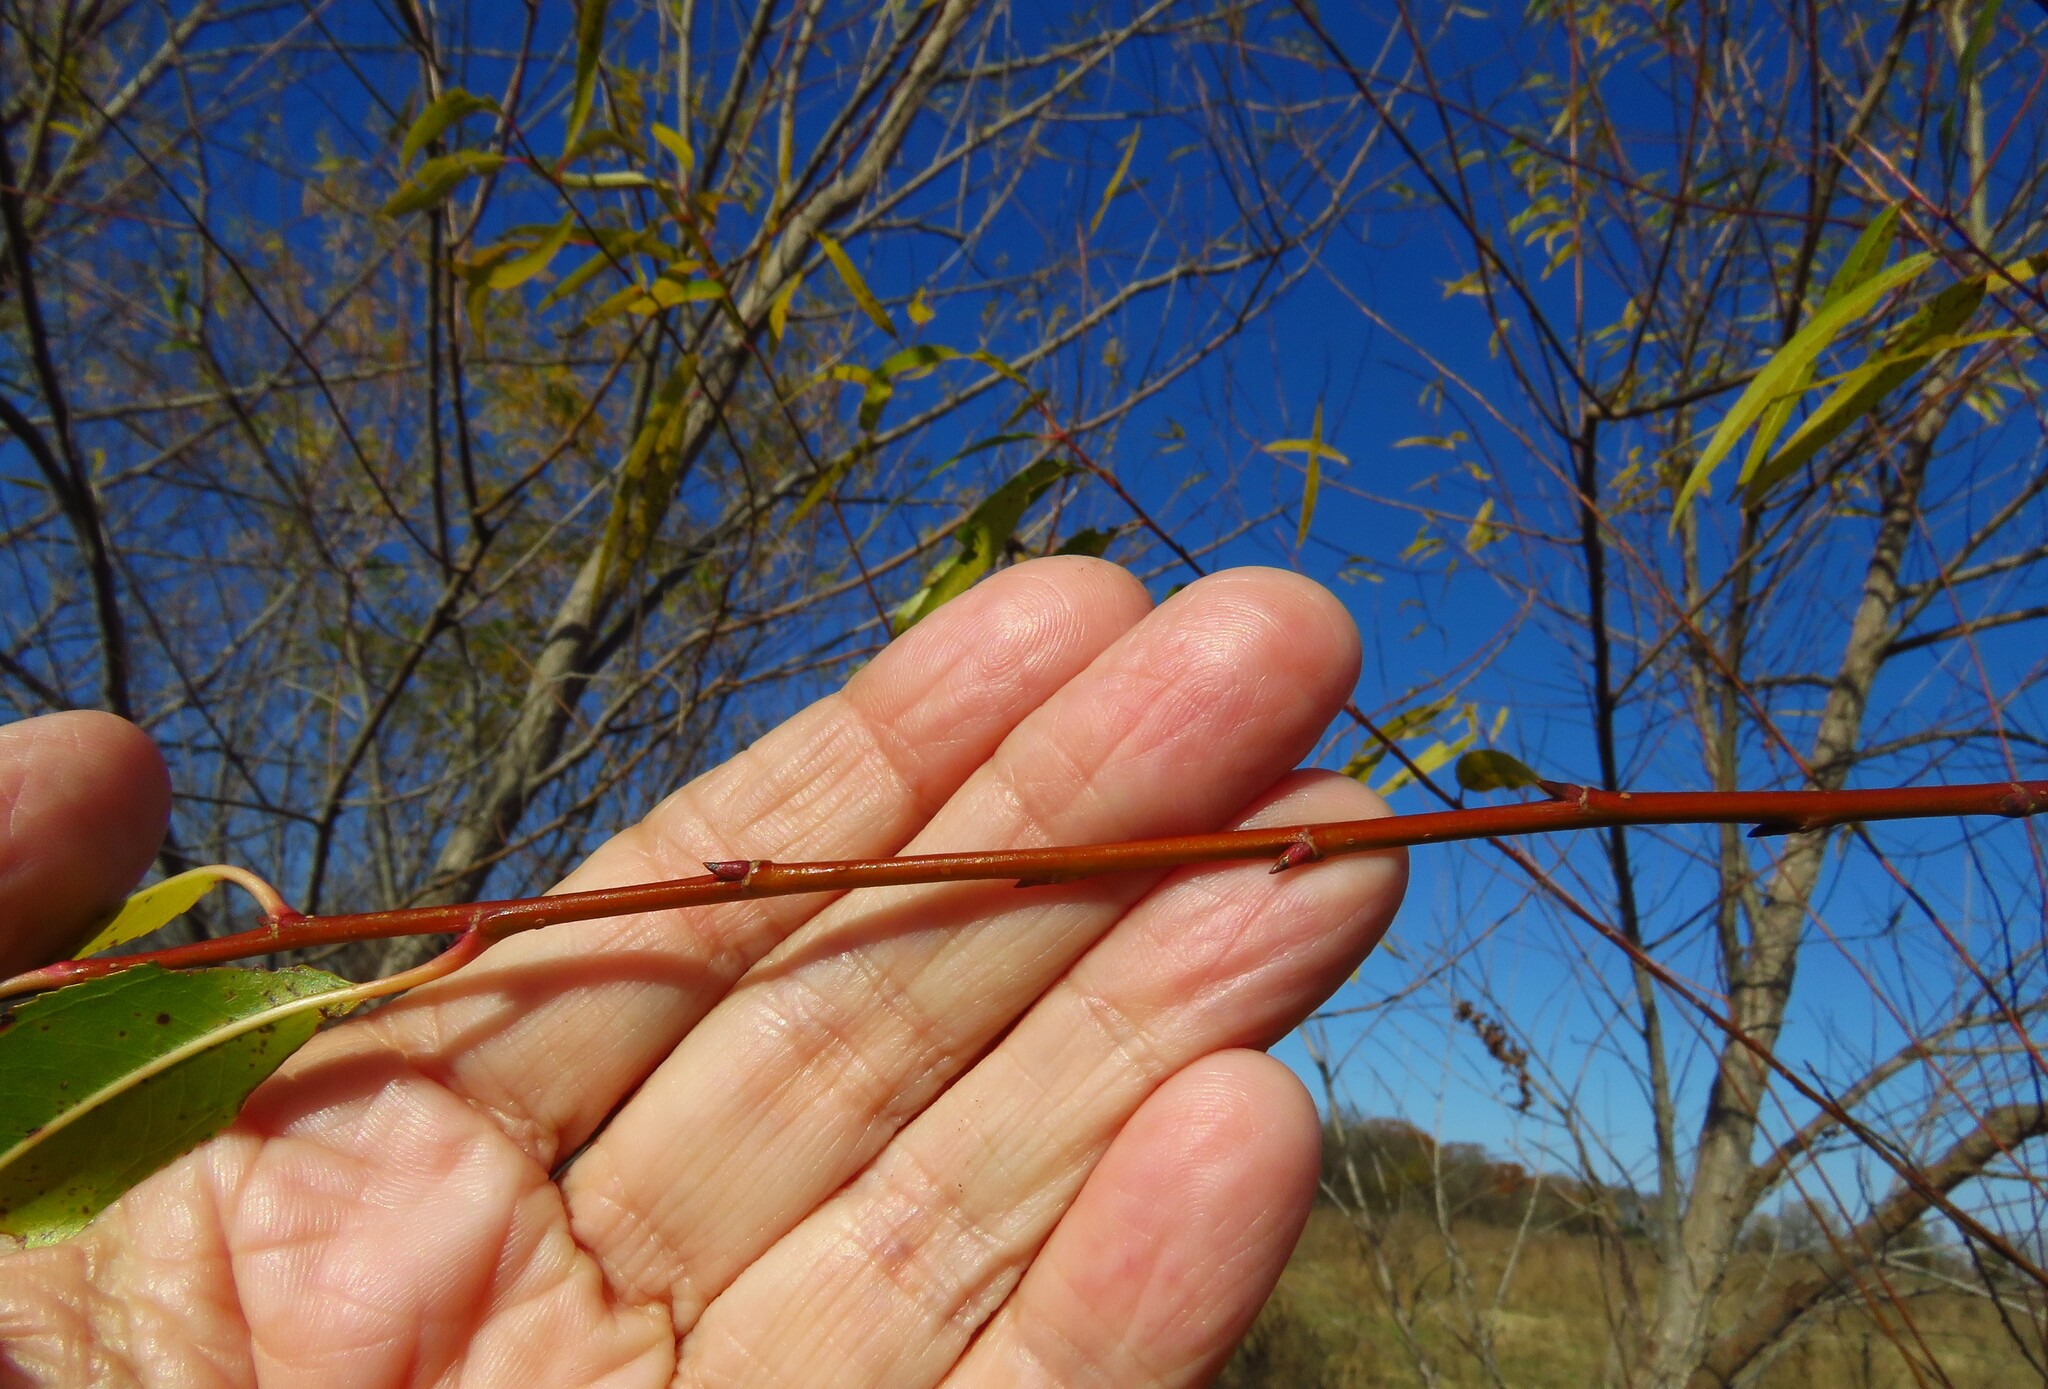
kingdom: Plantae
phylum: Tracheophyta
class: Magnoliopsida
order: Malpighiales
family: Salicaceae
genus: Salix
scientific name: Salix nigra
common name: Black willow
